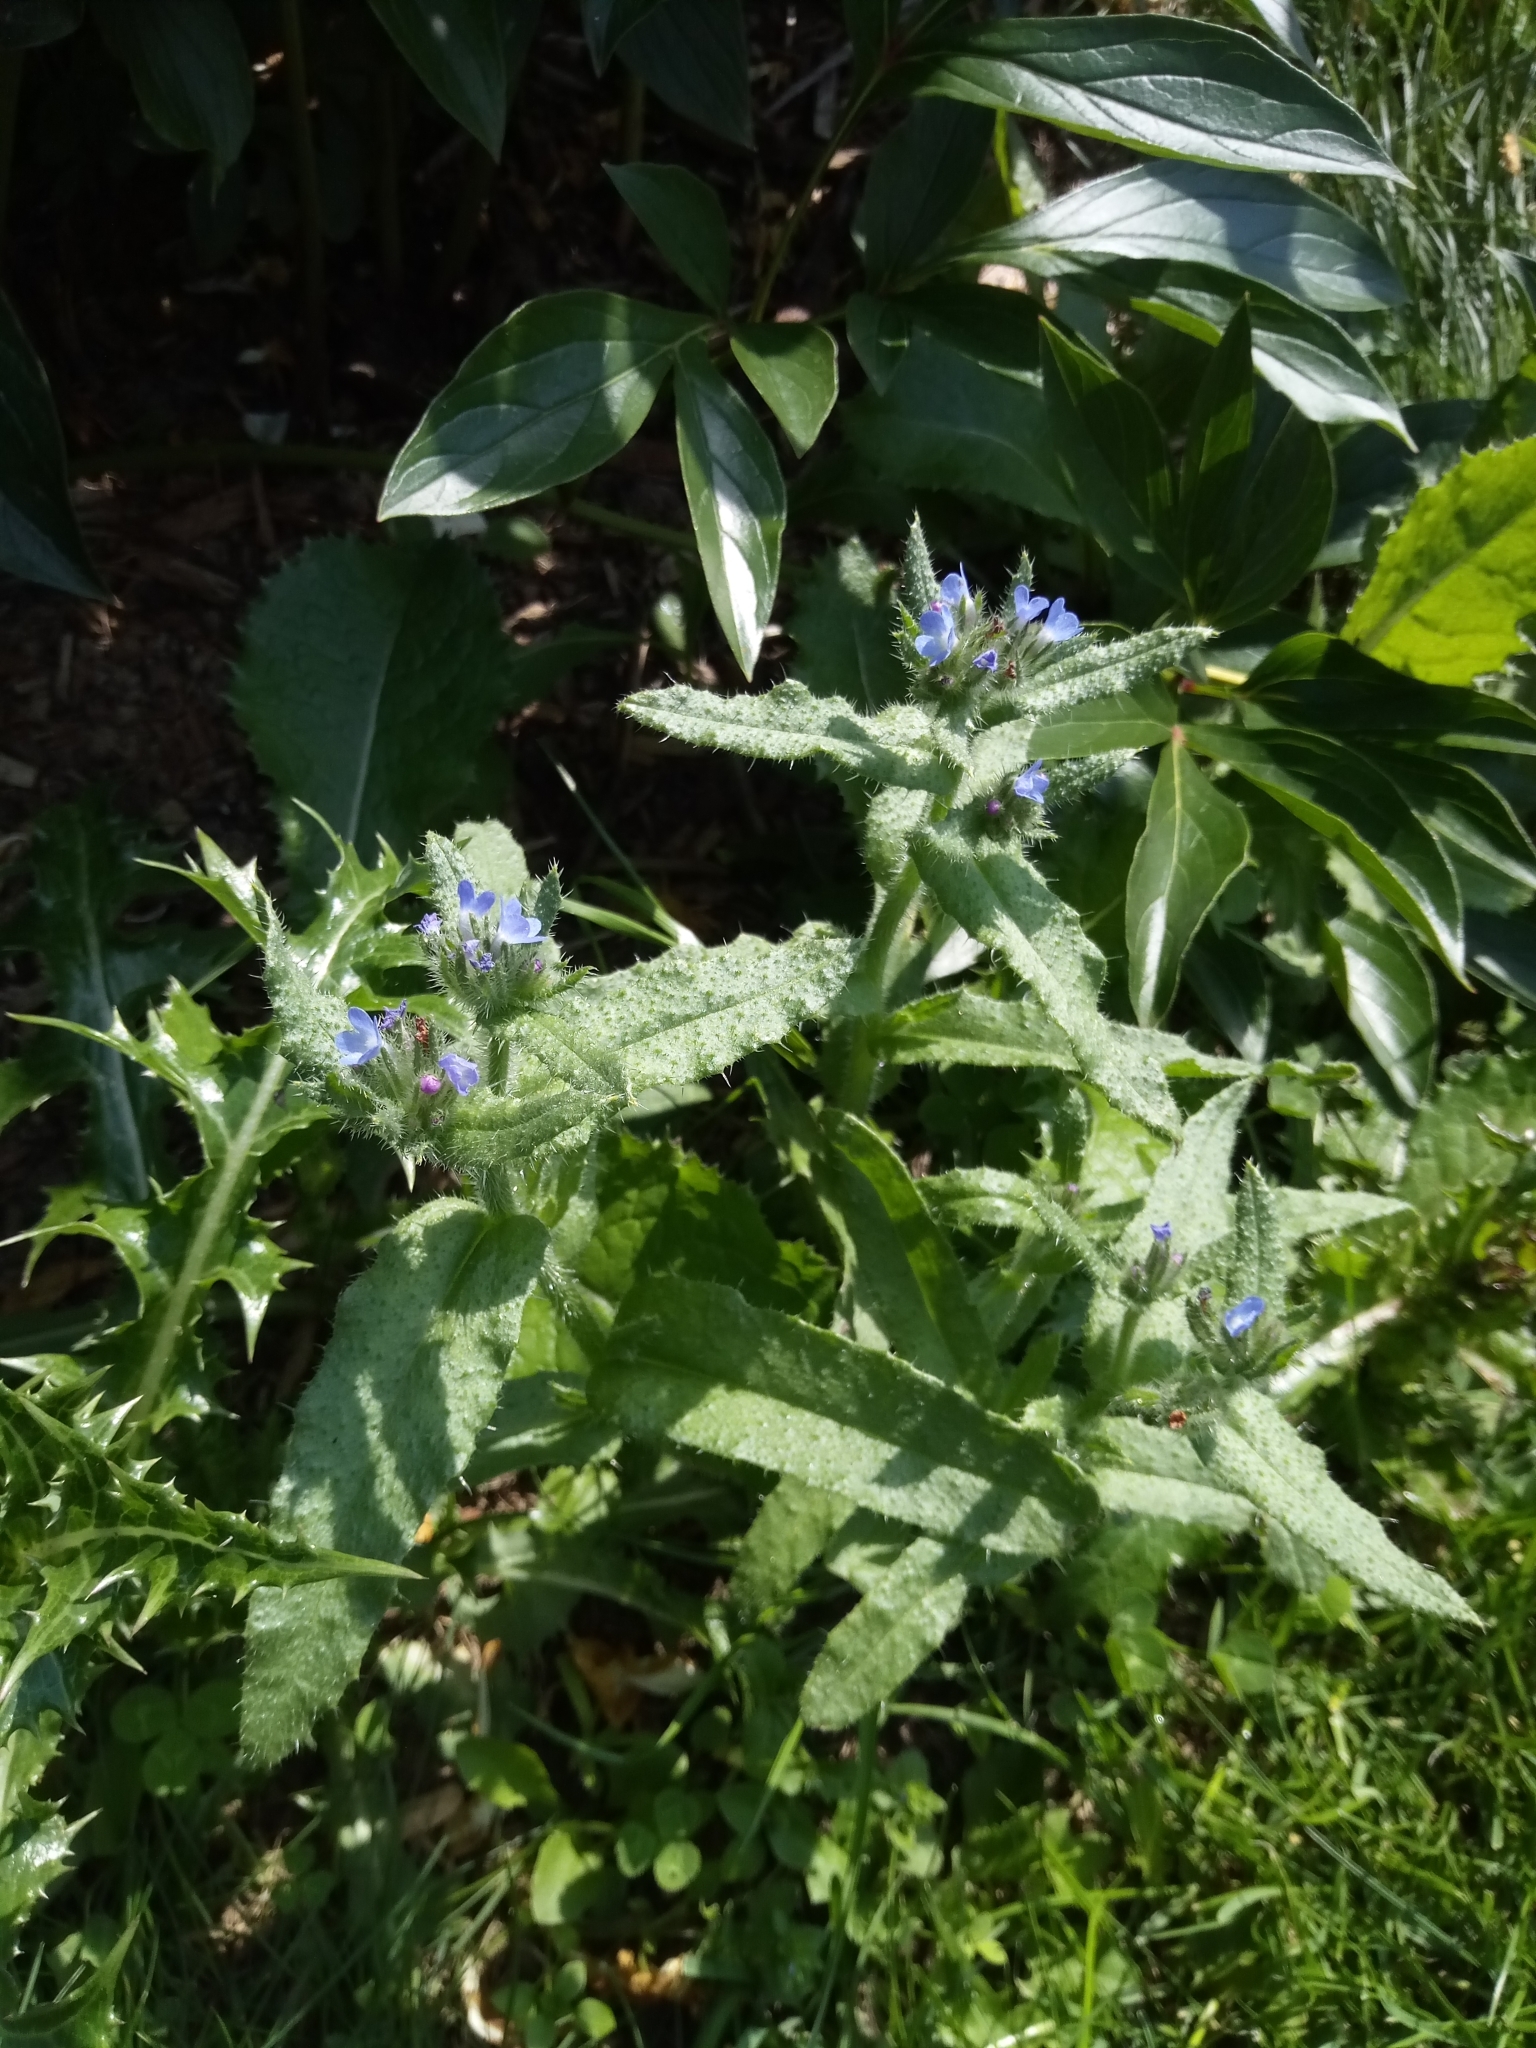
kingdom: Plantae
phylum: Tracheophyta
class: Magnoliopsida
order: Boraginales
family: Boraginaceae
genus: Lycopsis
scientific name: Lycopsis arvensis
